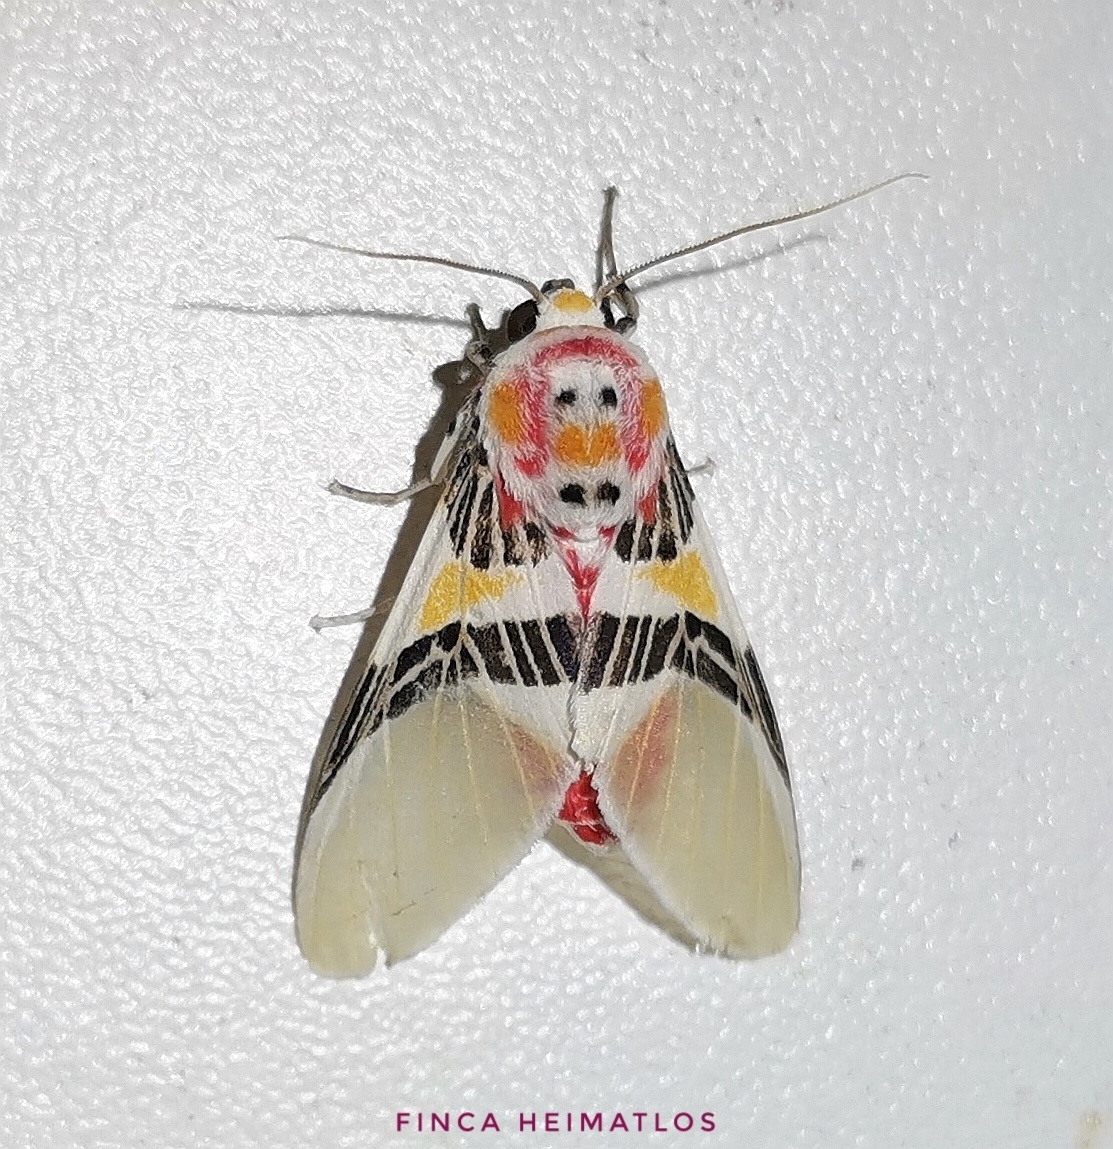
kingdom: Animalia
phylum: Arthropoda
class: Insecta
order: Lepidoptera
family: Erebidae
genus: Idalus
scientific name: Idalus pichesensis
